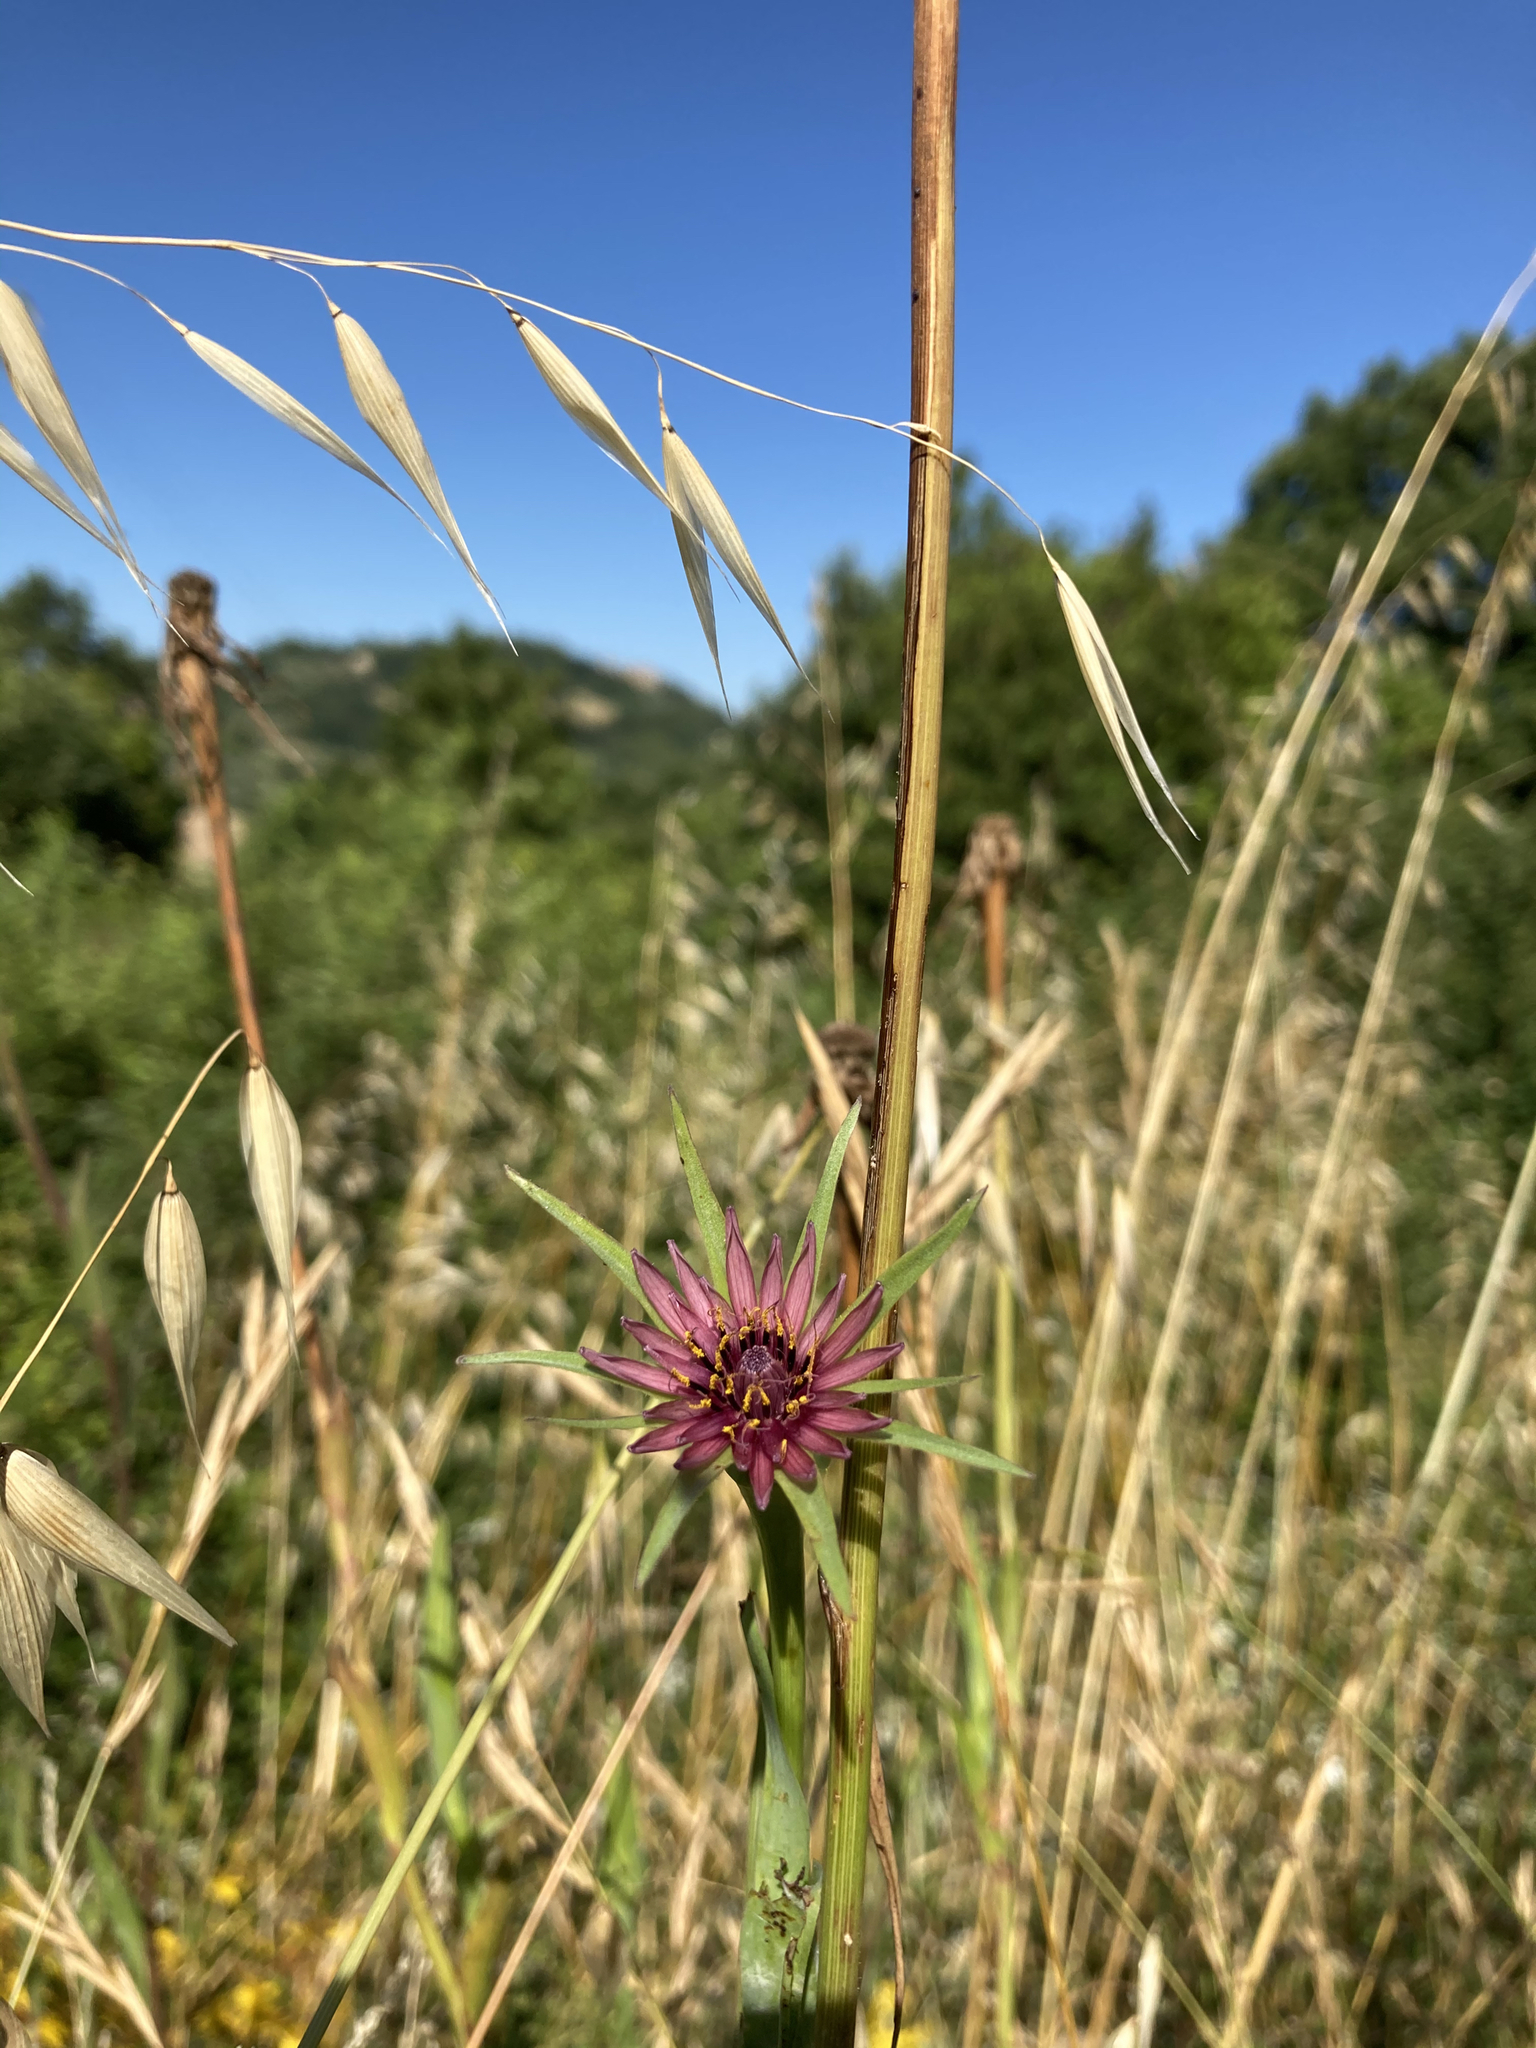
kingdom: Plantae
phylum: Tracheophyta
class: Magnoliopsida
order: Asterales
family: Asteraceae
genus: Tragopogon
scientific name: Tragopogon porrifolius
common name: Salsify
